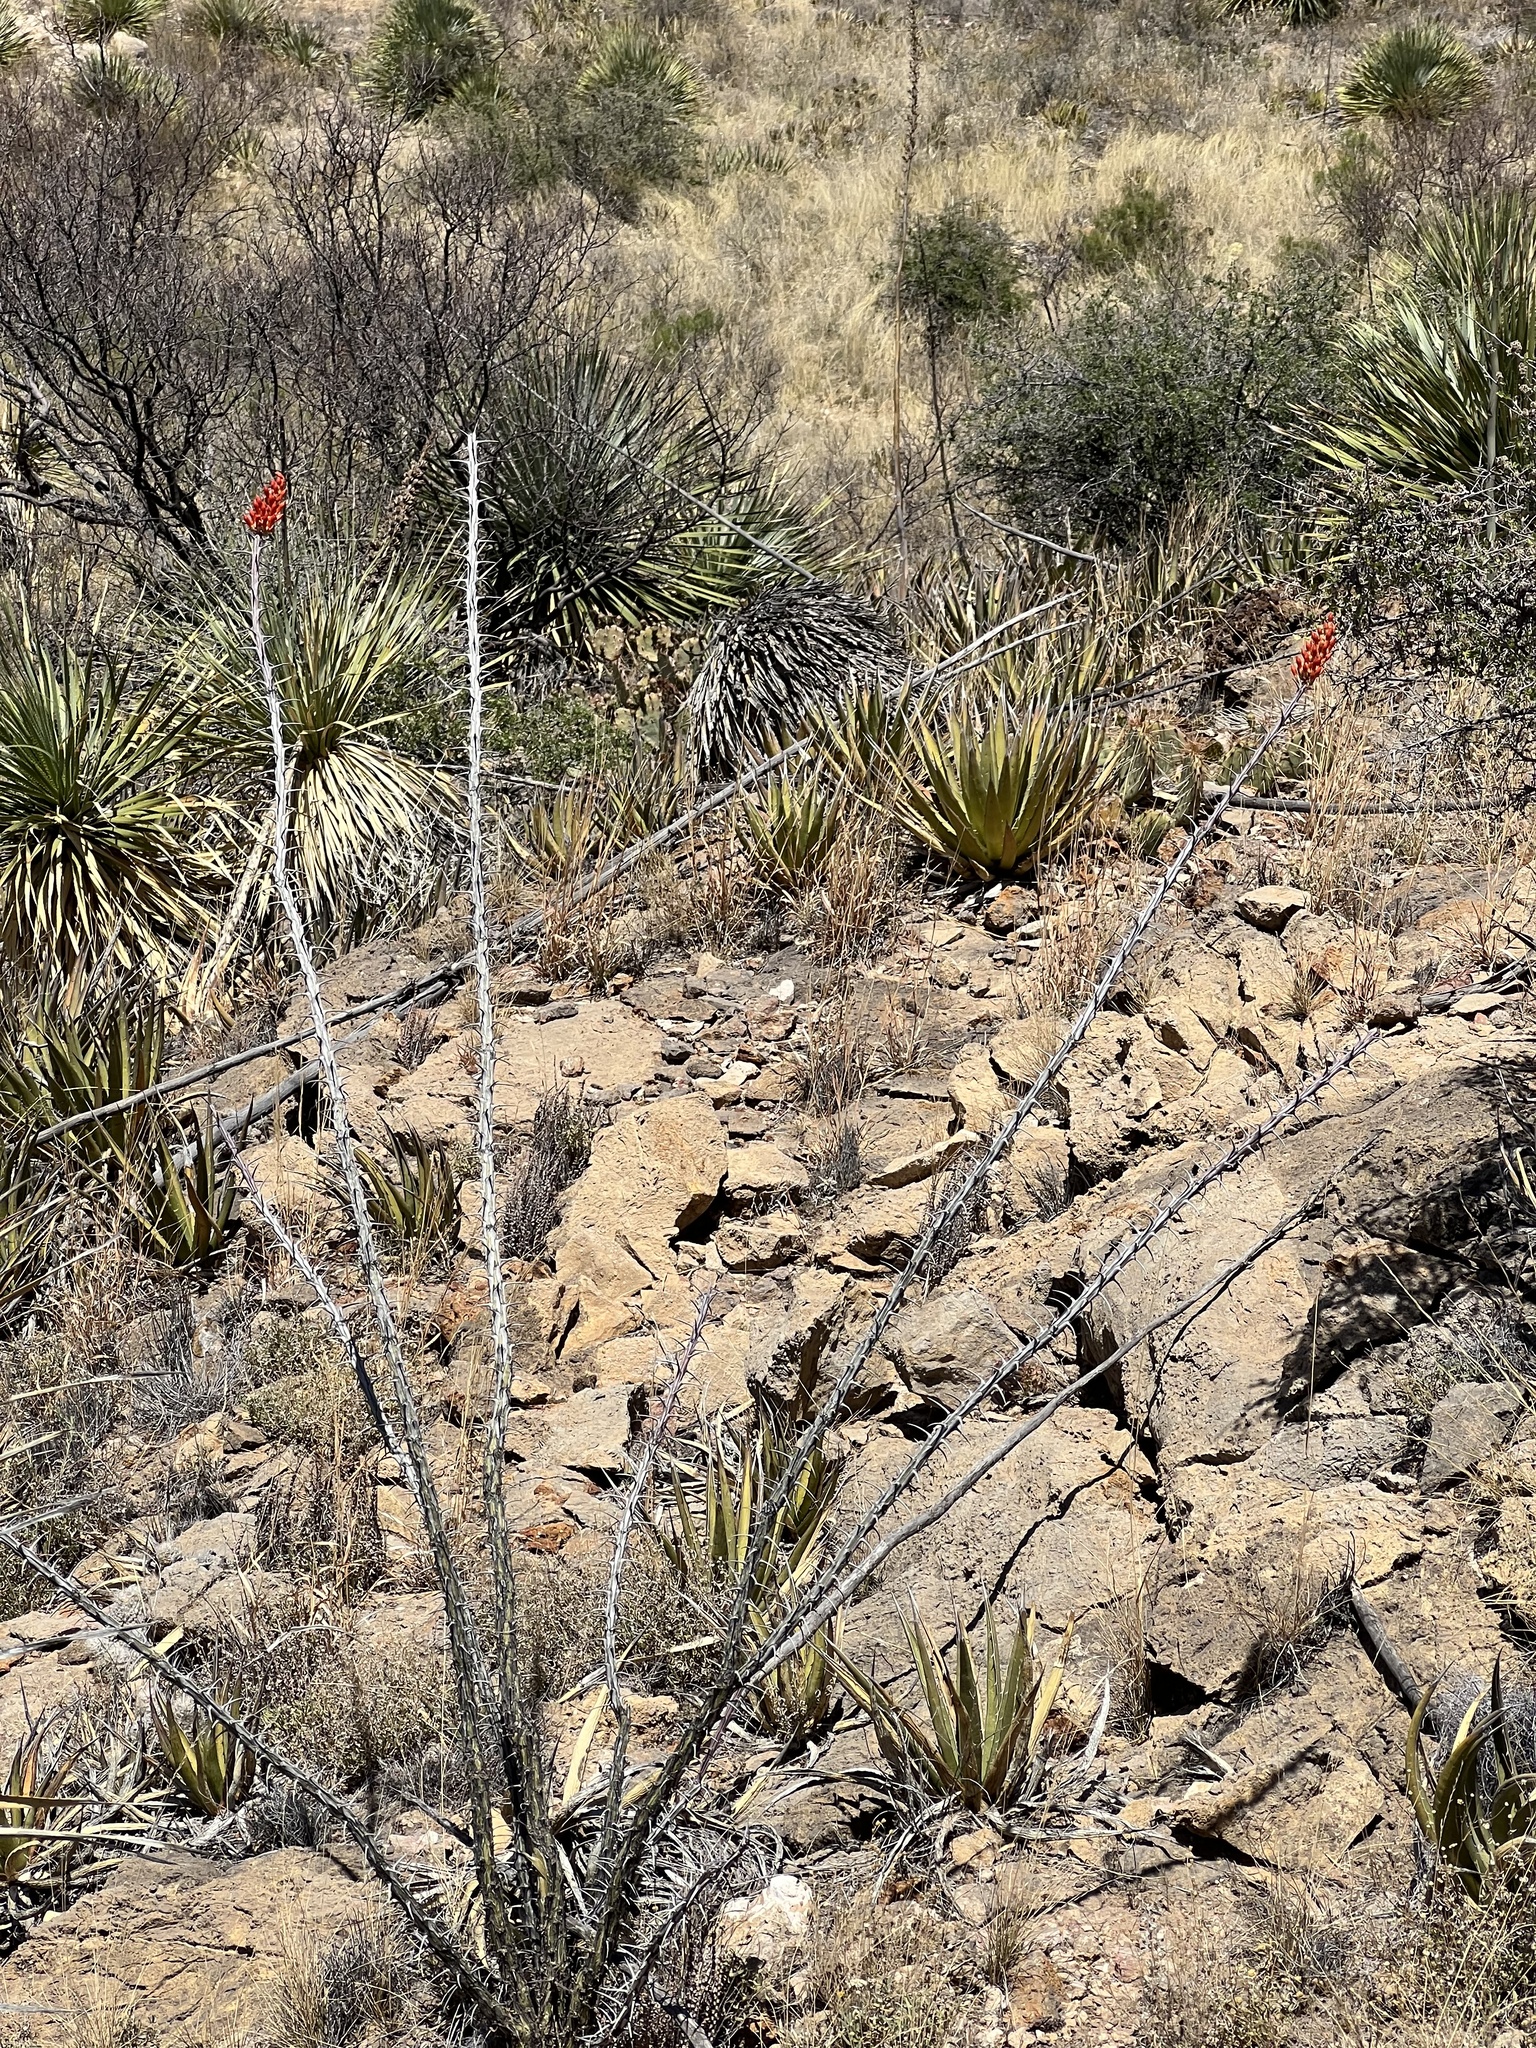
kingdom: Plantae
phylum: Tracheophyta
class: Magnoliopsida
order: Ericales
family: Fouquieriaceae
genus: Fouquieria
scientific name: Fouquieria splendens
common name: Vine-cactus
